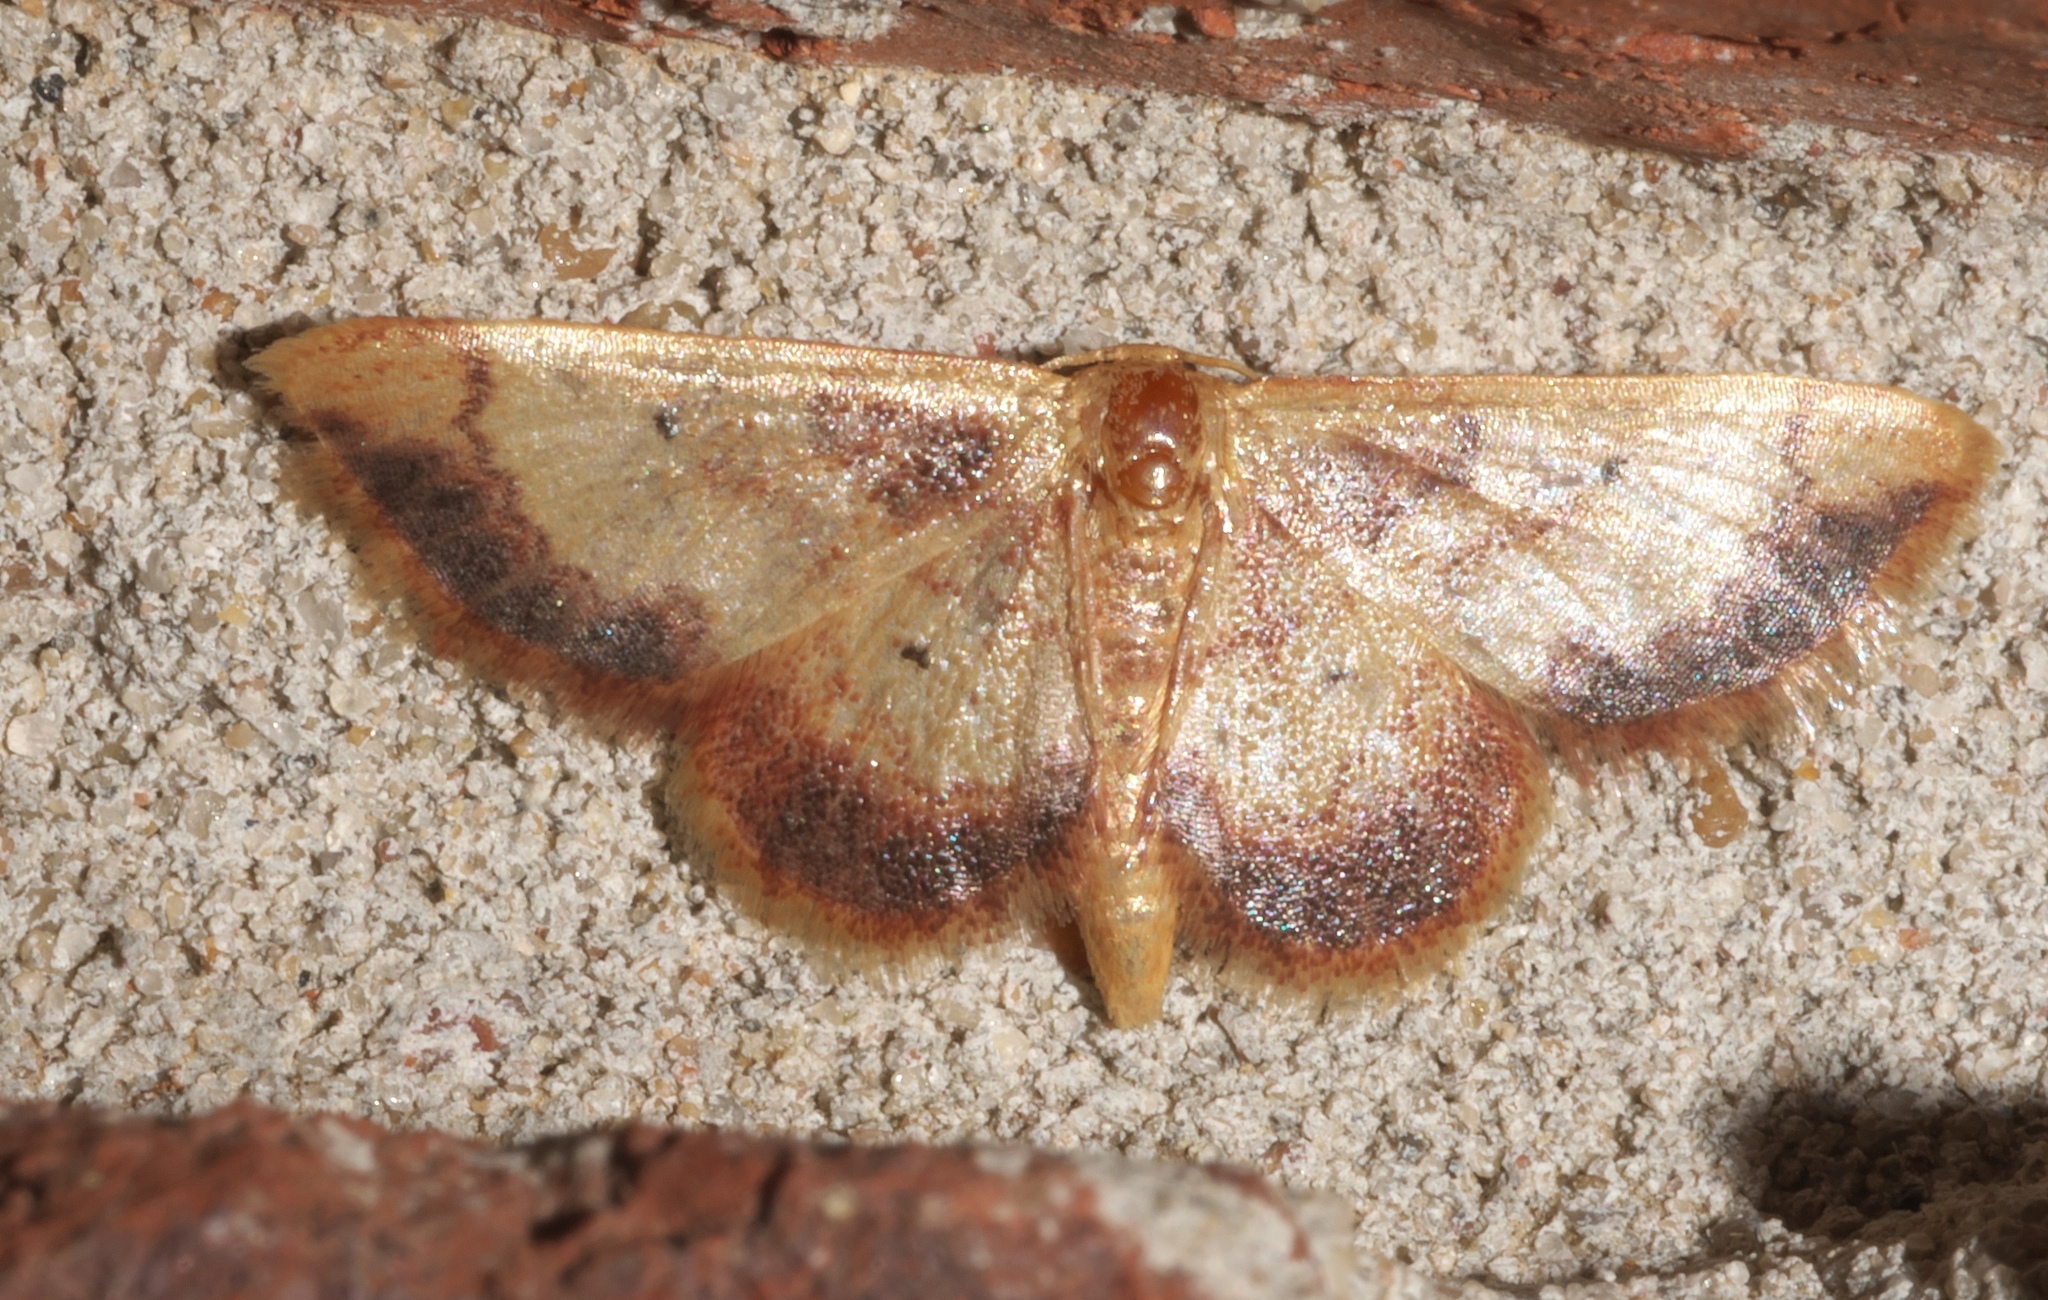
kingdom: Animalia
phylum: Arthropoda
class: Insecta
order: Lepidoptera
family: Geometridae
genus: Idaea
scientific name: Idaea demissaria
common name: Red-bordered wave
